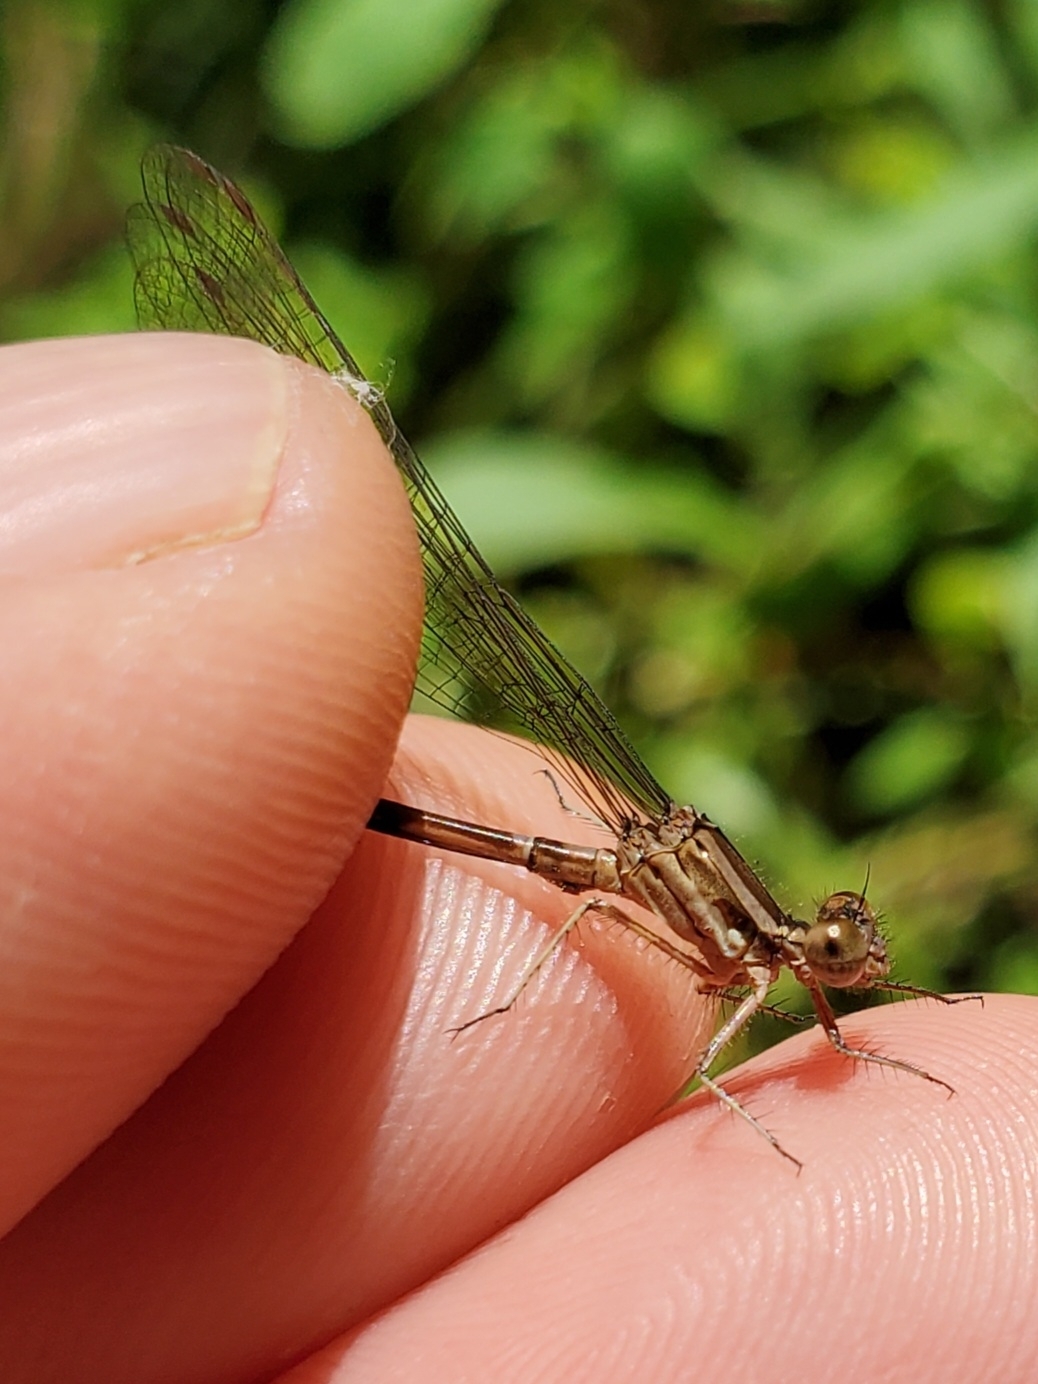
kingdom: Animalia
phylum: Arthropoda
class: Insecta
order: Odonata
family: Coenagrionidae
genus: Argia
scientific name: Argia sedula
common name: Blue-ringed dancer
